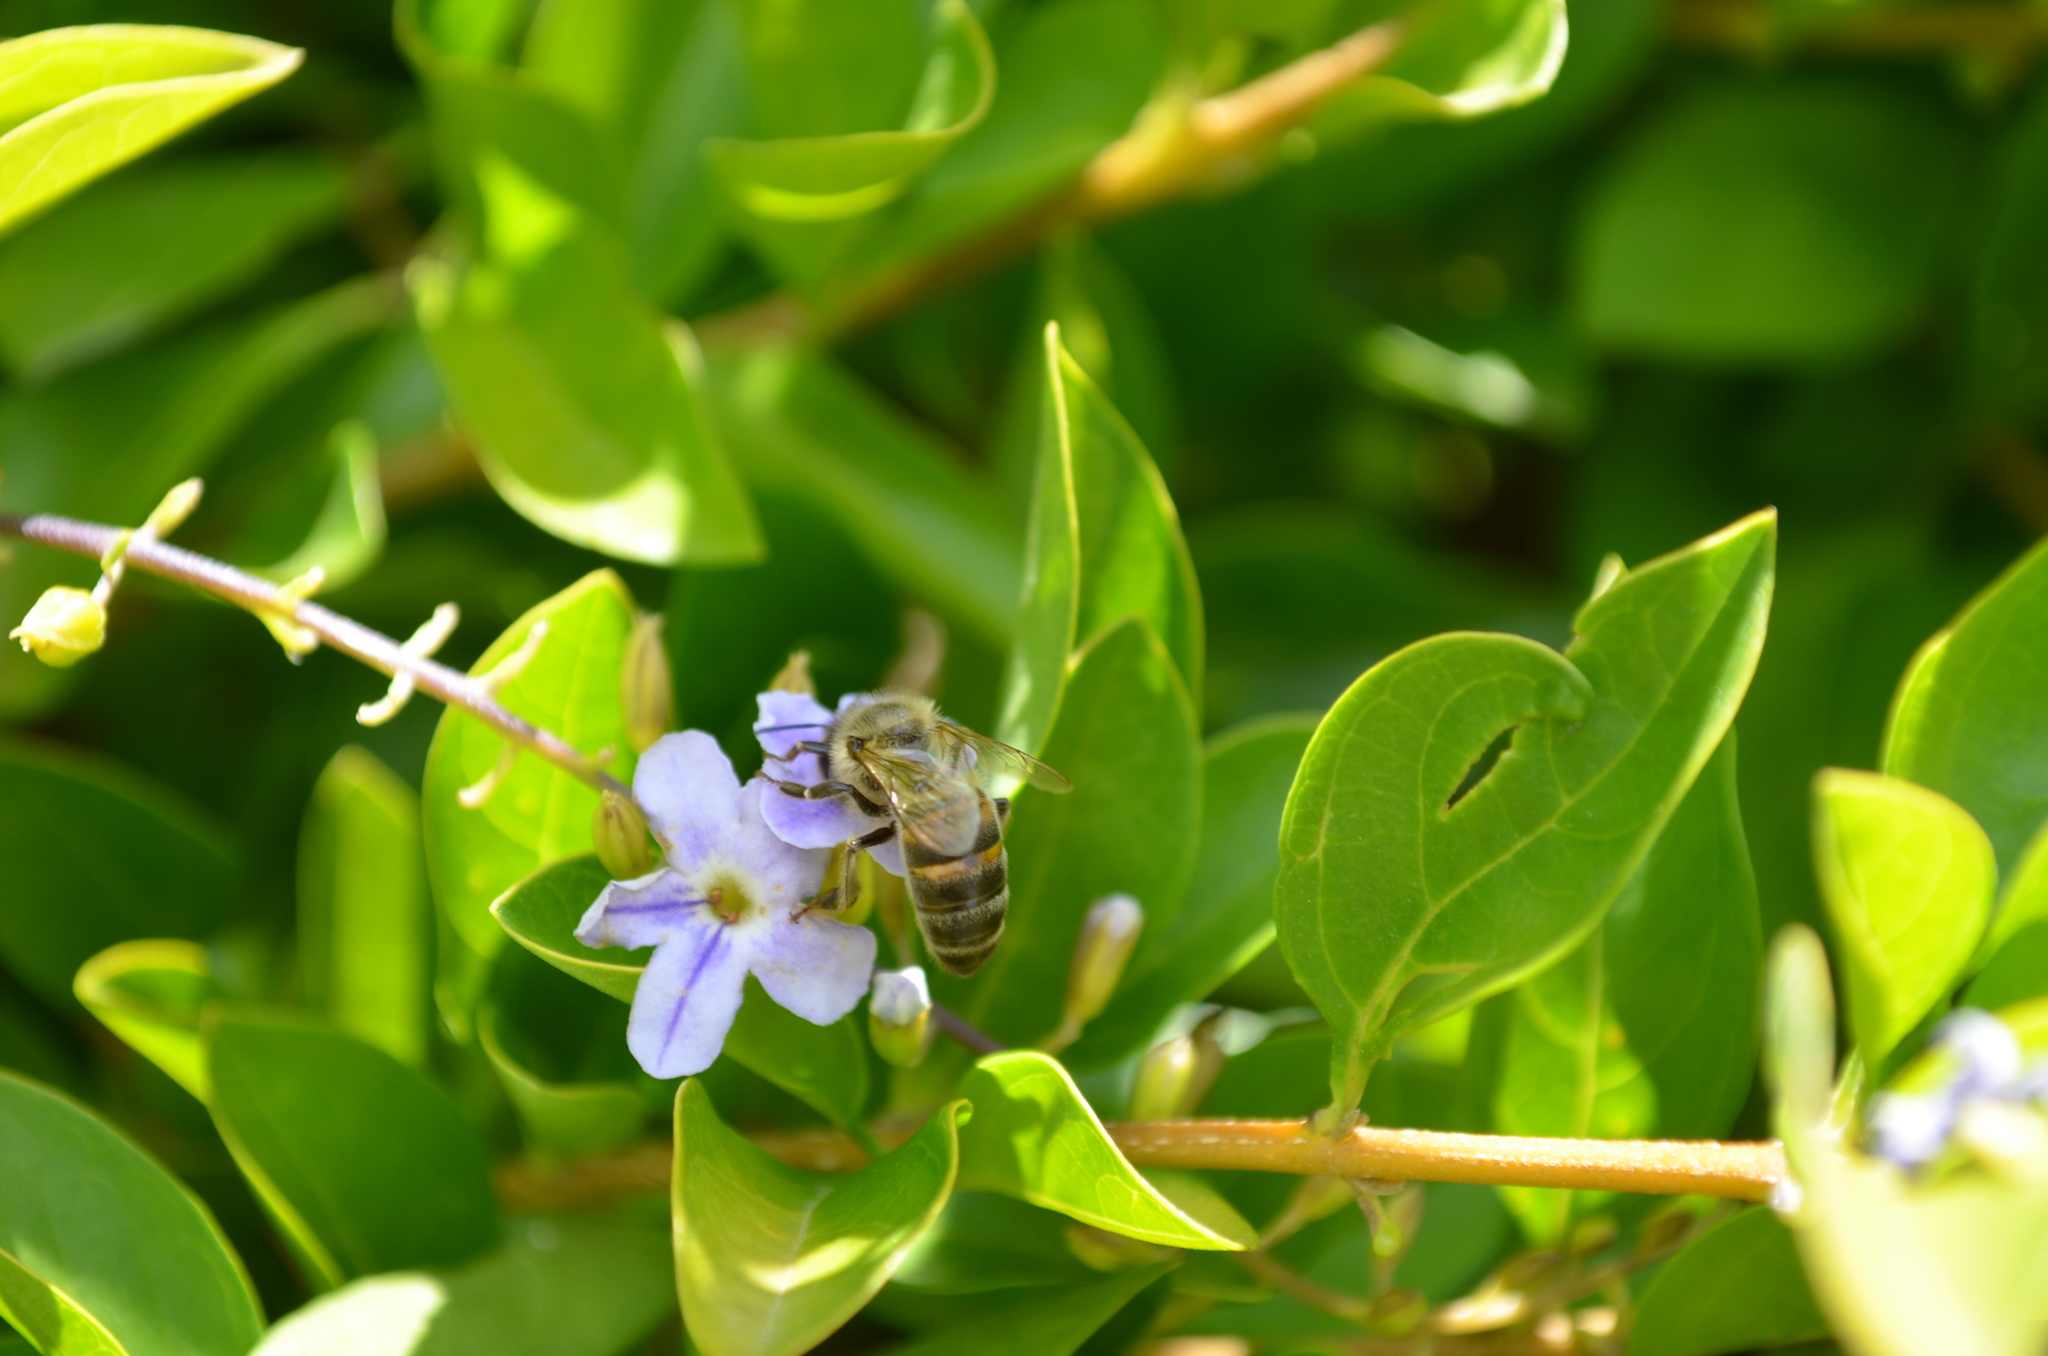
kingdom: Animalia
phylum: Arthropoda
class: Insecta
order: Hymenoptera
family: Apidae
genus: Apis
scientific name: Apis mellifera
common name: Honey bee
